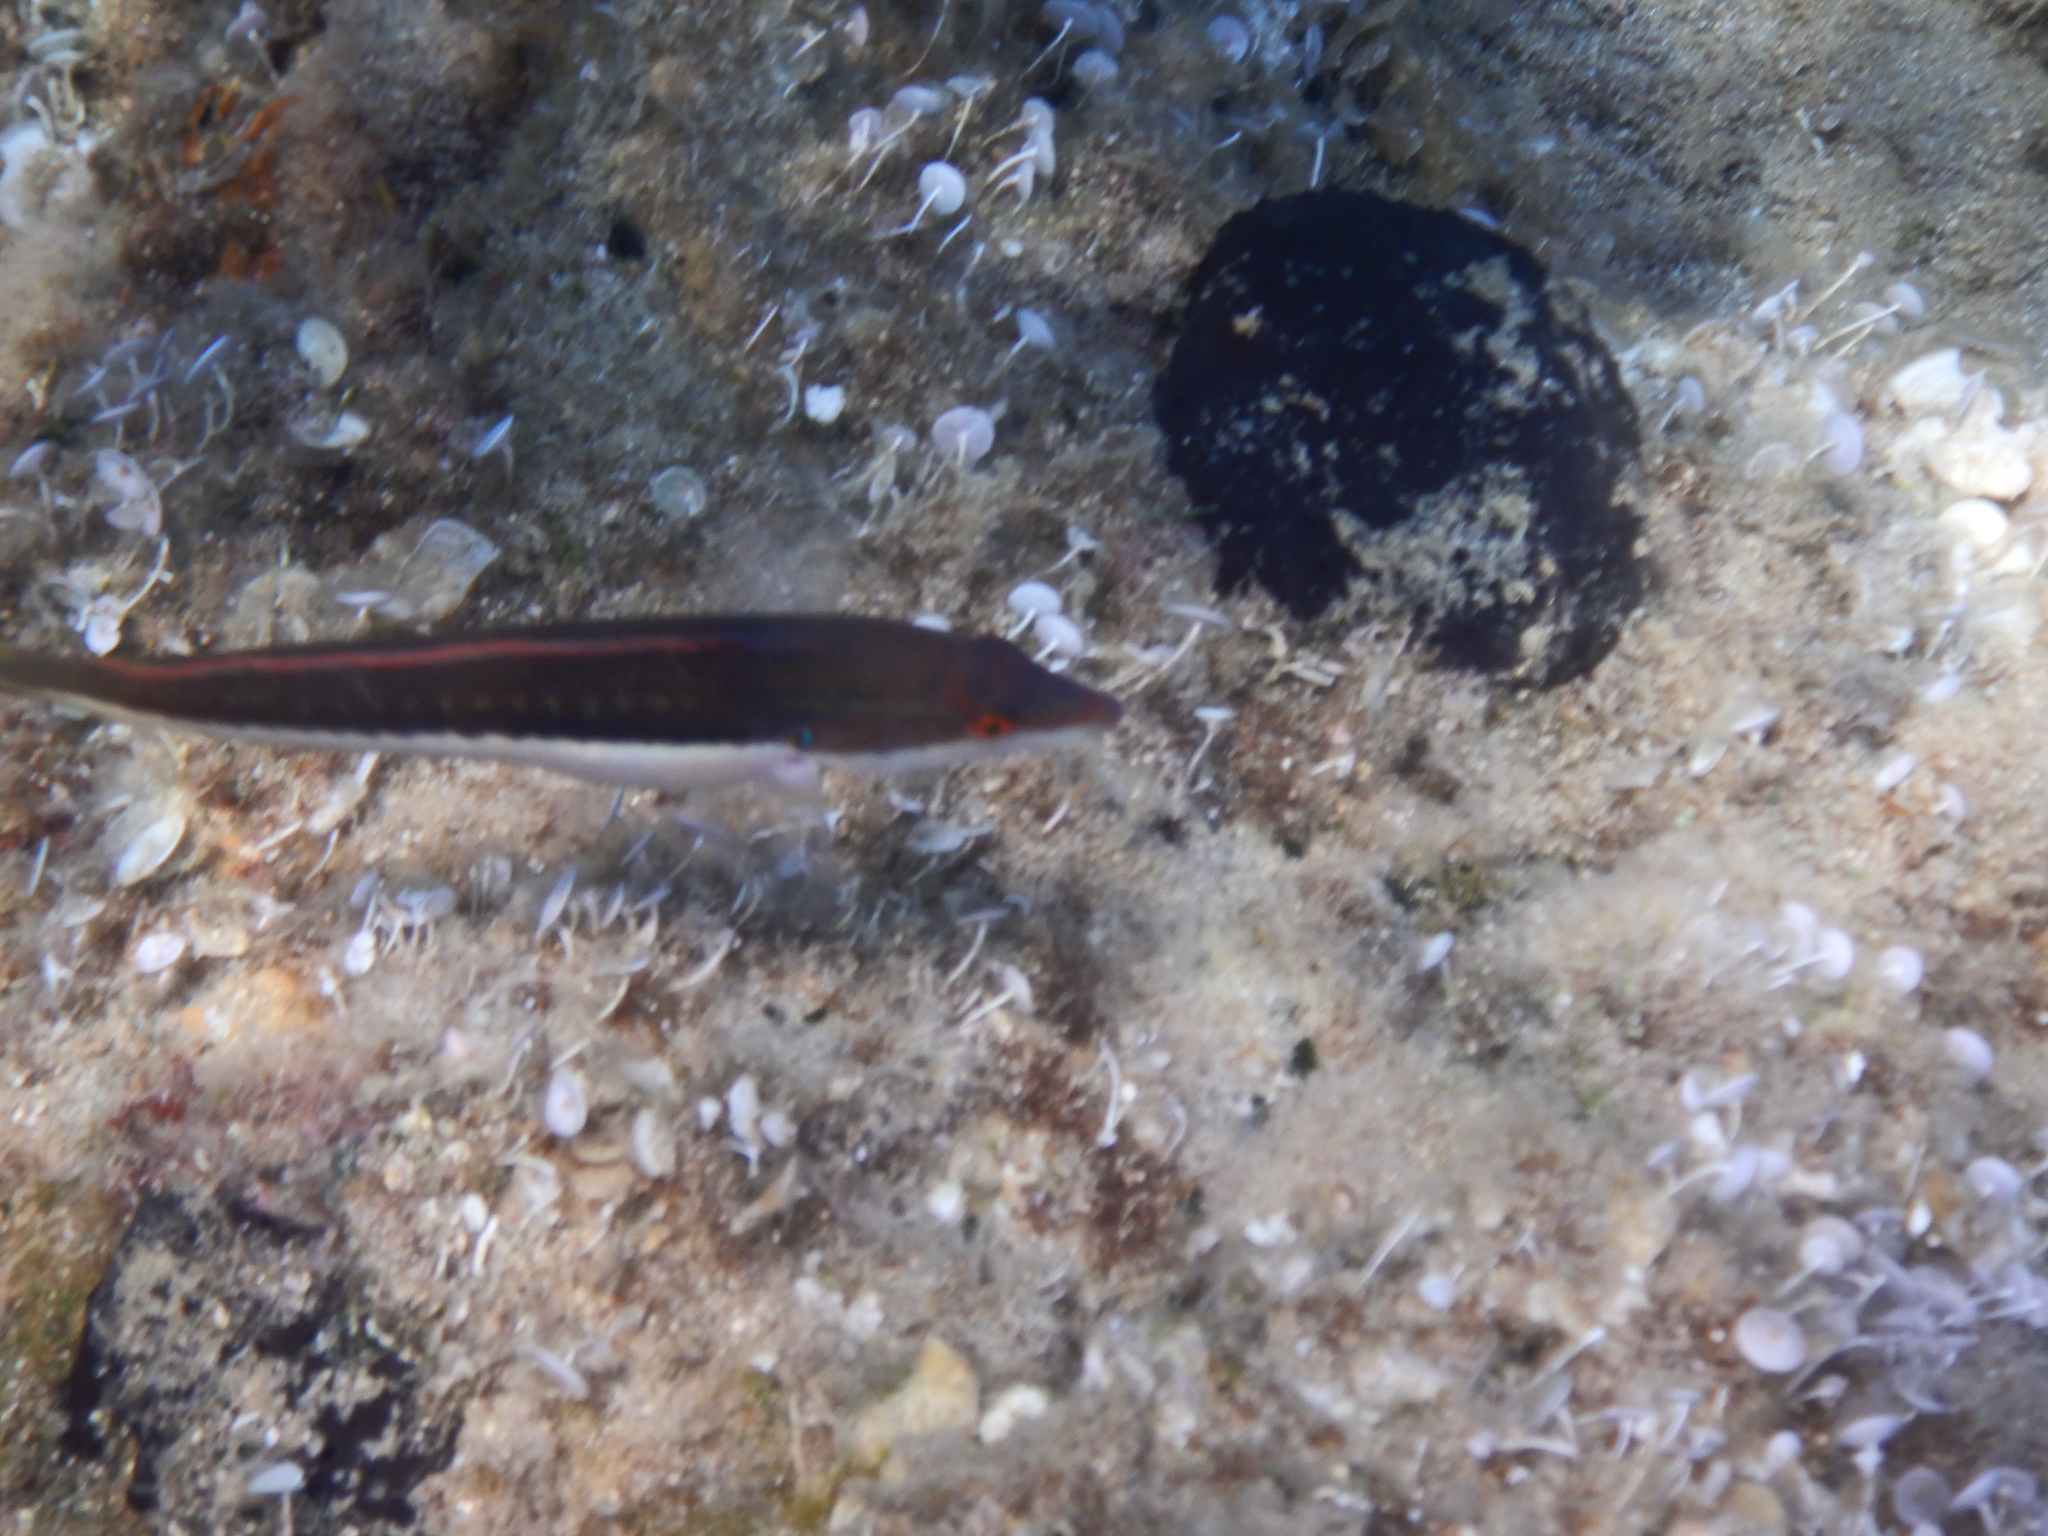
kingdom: Animalia
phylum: Chordata
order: Perciformes
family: Labridae
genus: Coris
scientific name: Coris julis
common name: Rainbow wrasse
